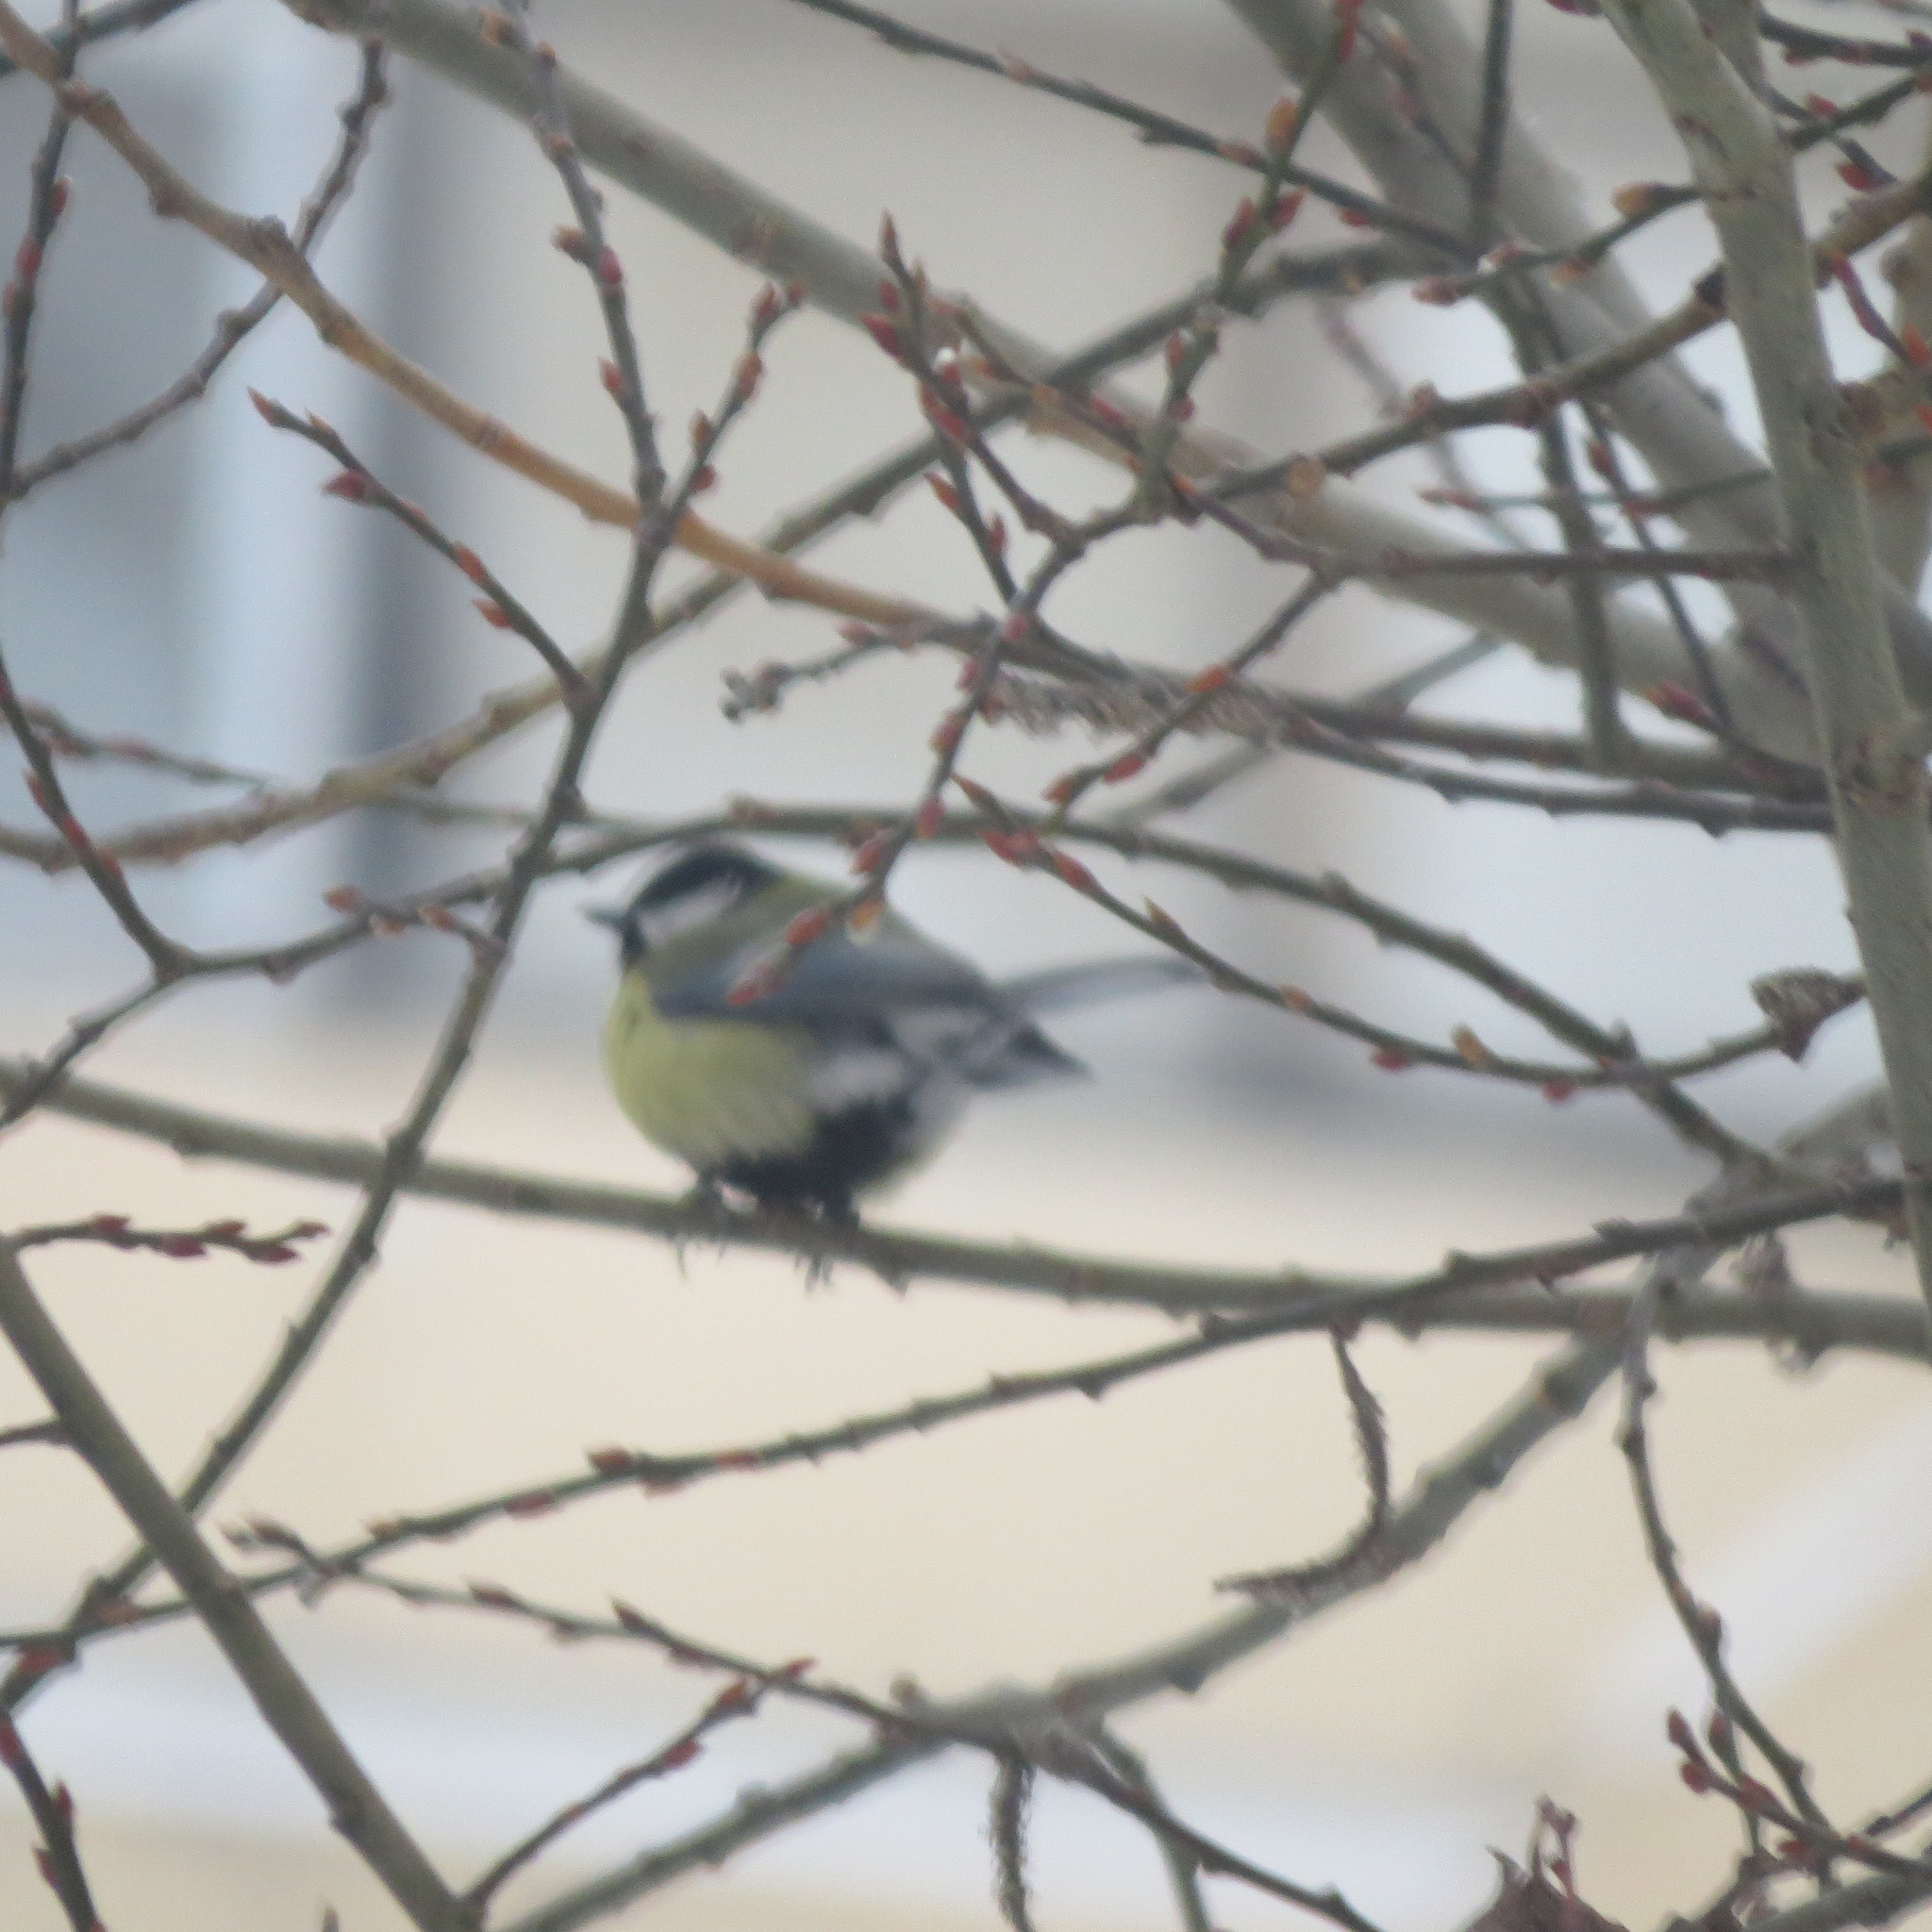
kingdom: Animalia
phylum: Chordata
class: Aves
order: Passeriformes
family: Paridae
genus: Parus
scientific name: Parus major
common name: Great tit
